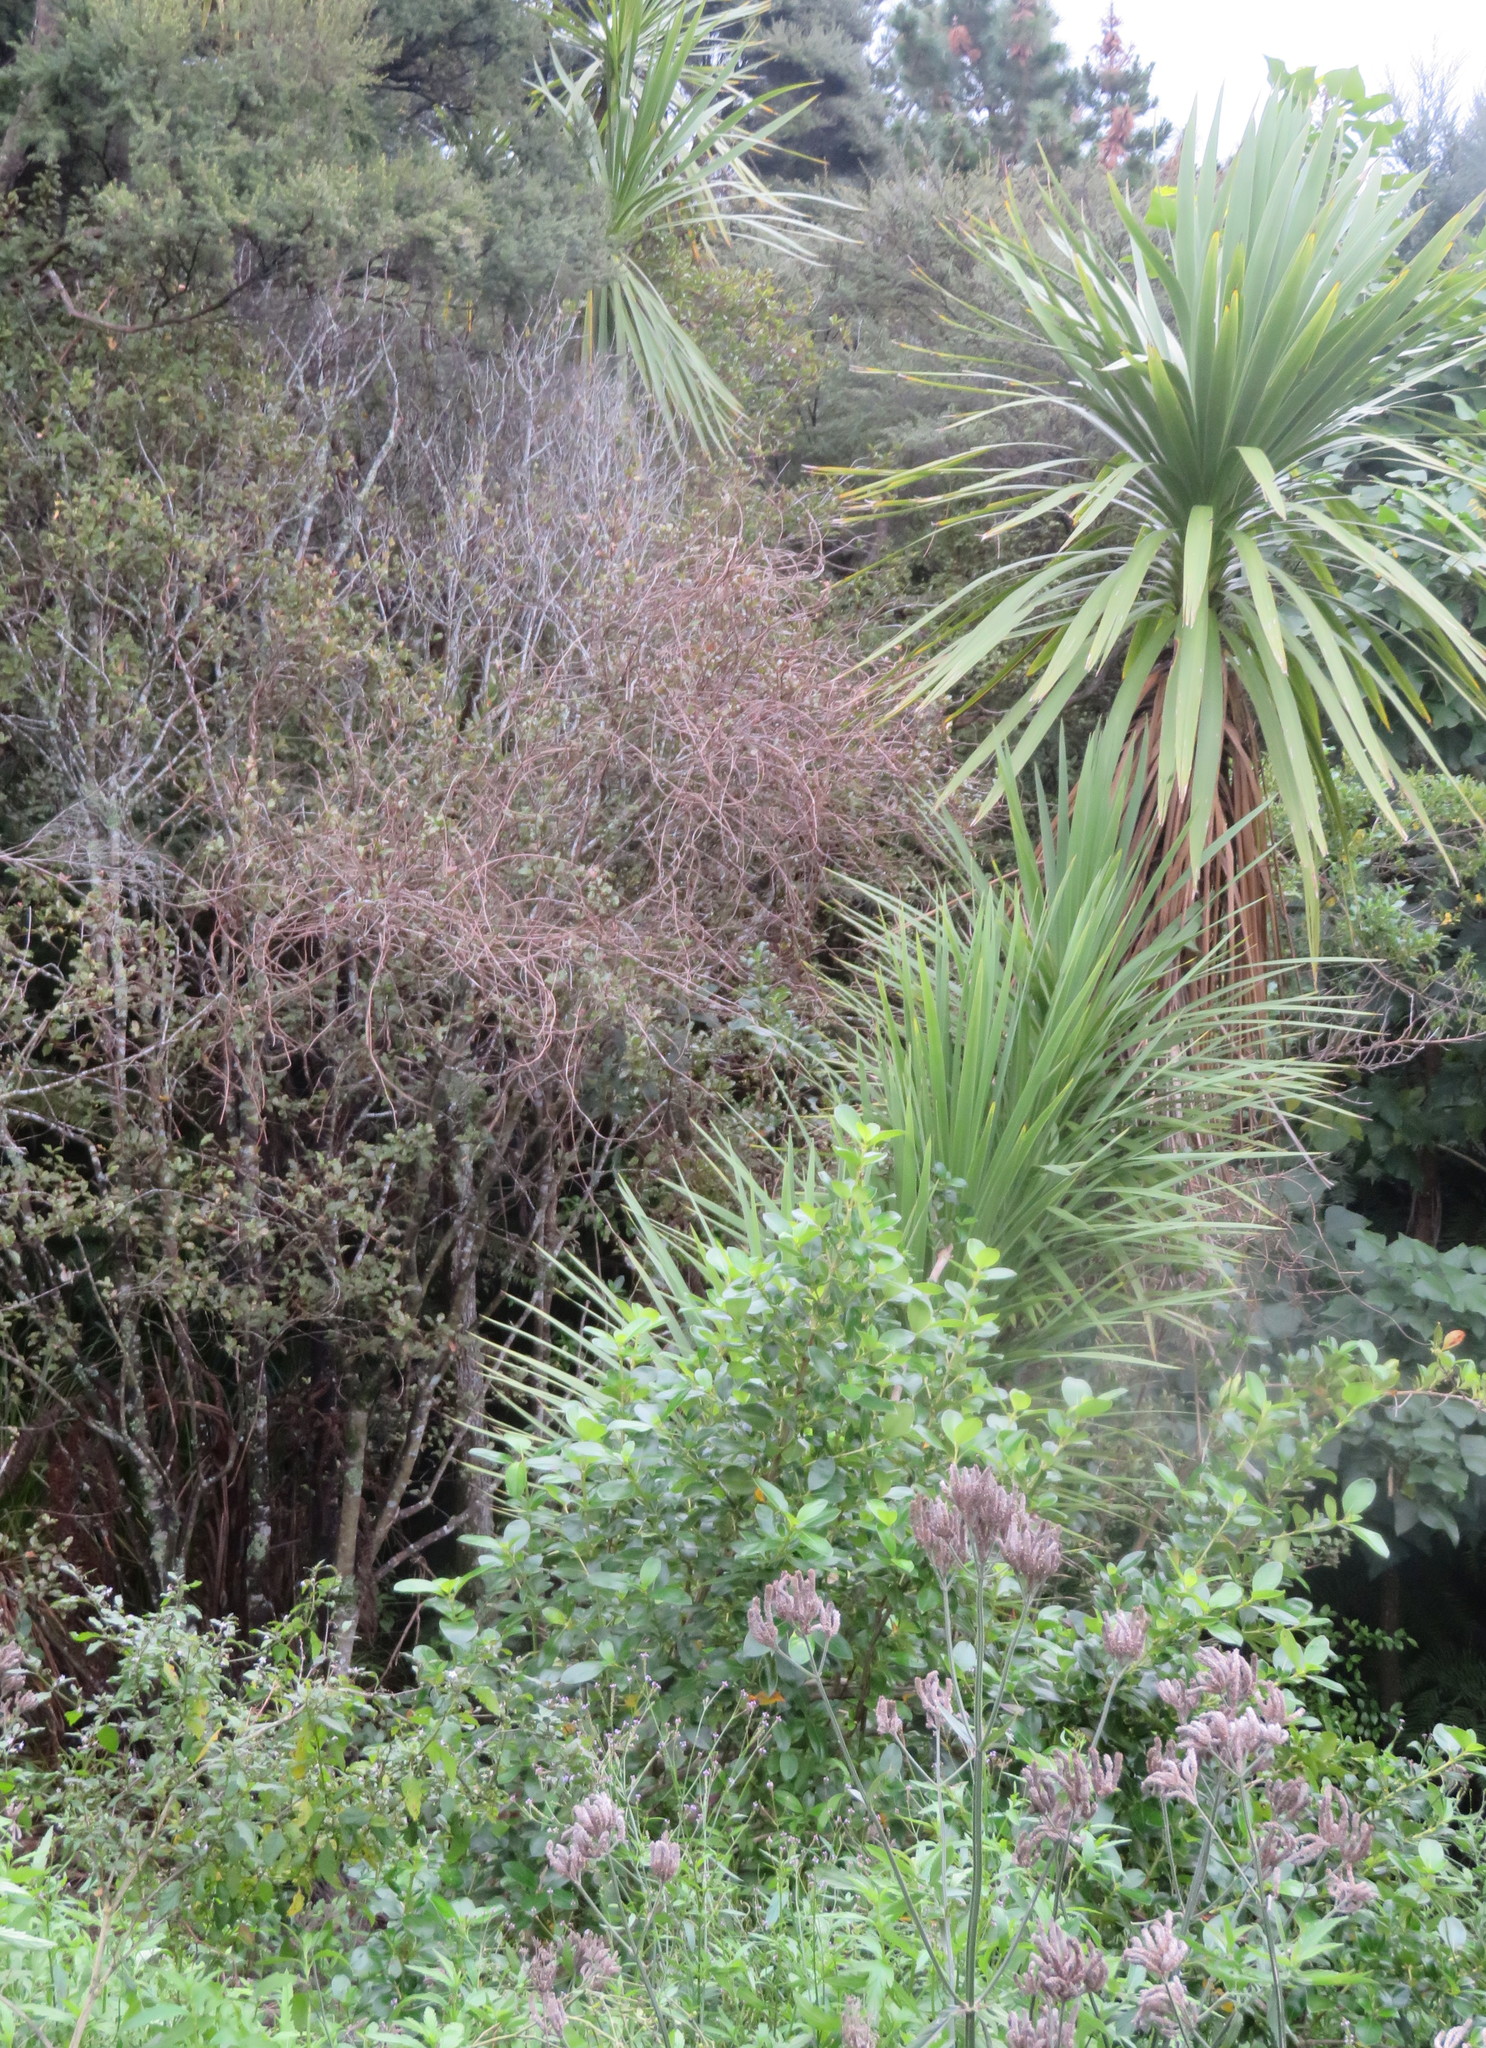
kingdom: Plantae
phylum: Tracheophyta
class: Liliopsida
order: Asparagales
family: Asparagaceae
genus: Cordyline
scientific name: Cordyline australis
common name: Cabbage-palm
